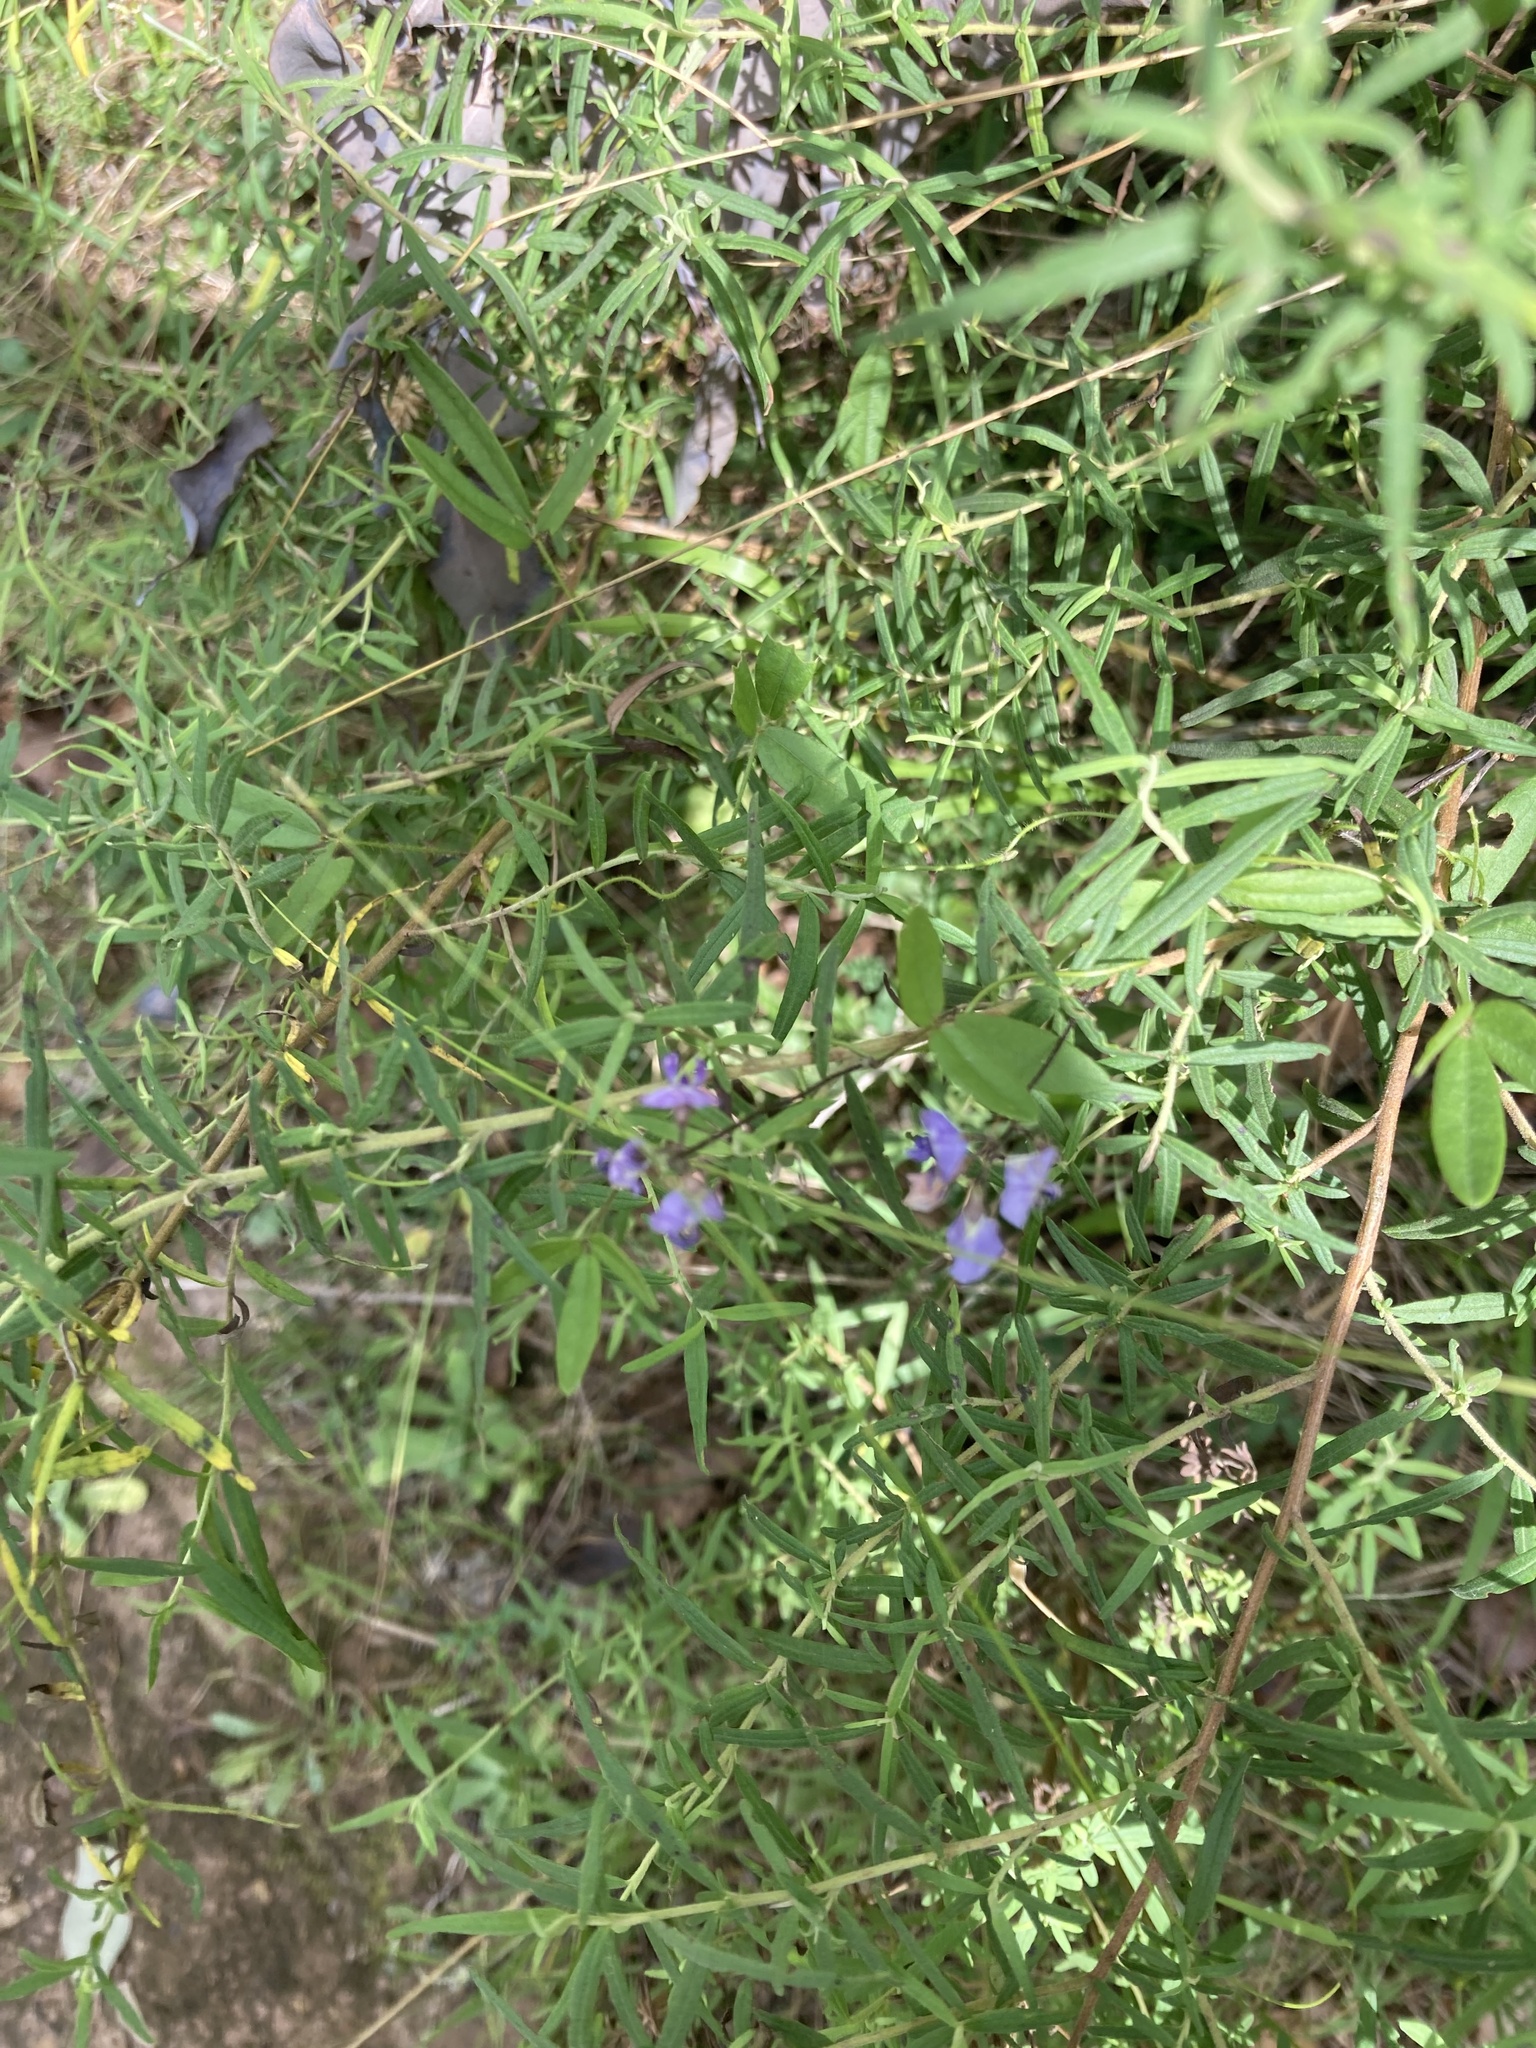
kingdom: Plantae
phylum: Tracheophyta
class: Magnoliopsida
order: Fabales
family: Fabaceae
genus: Glycine
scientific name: Glycine clandestina
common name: Twining glycine
